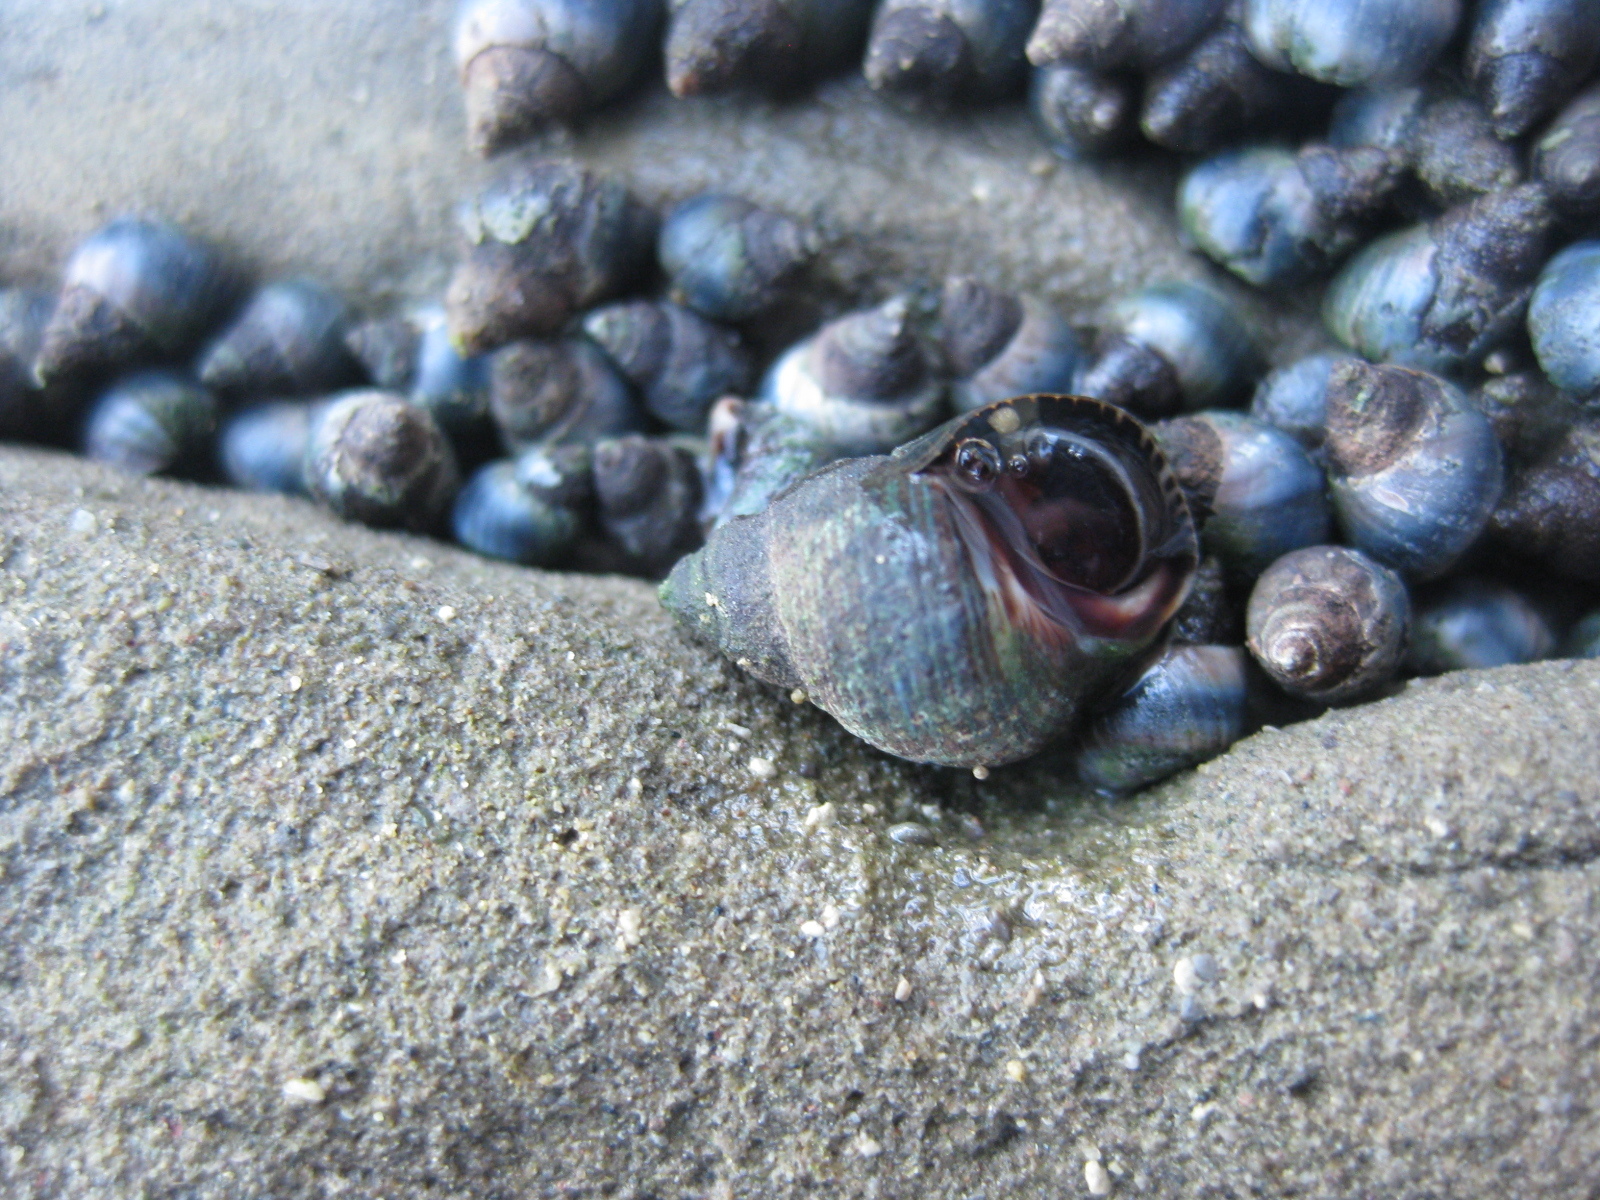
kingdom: Animalia
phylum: Mollusca
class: Gastropoda
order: Littorinimorpha
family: Littorinidae
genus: Austrolittorina
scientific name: Austrolittorina cincta
